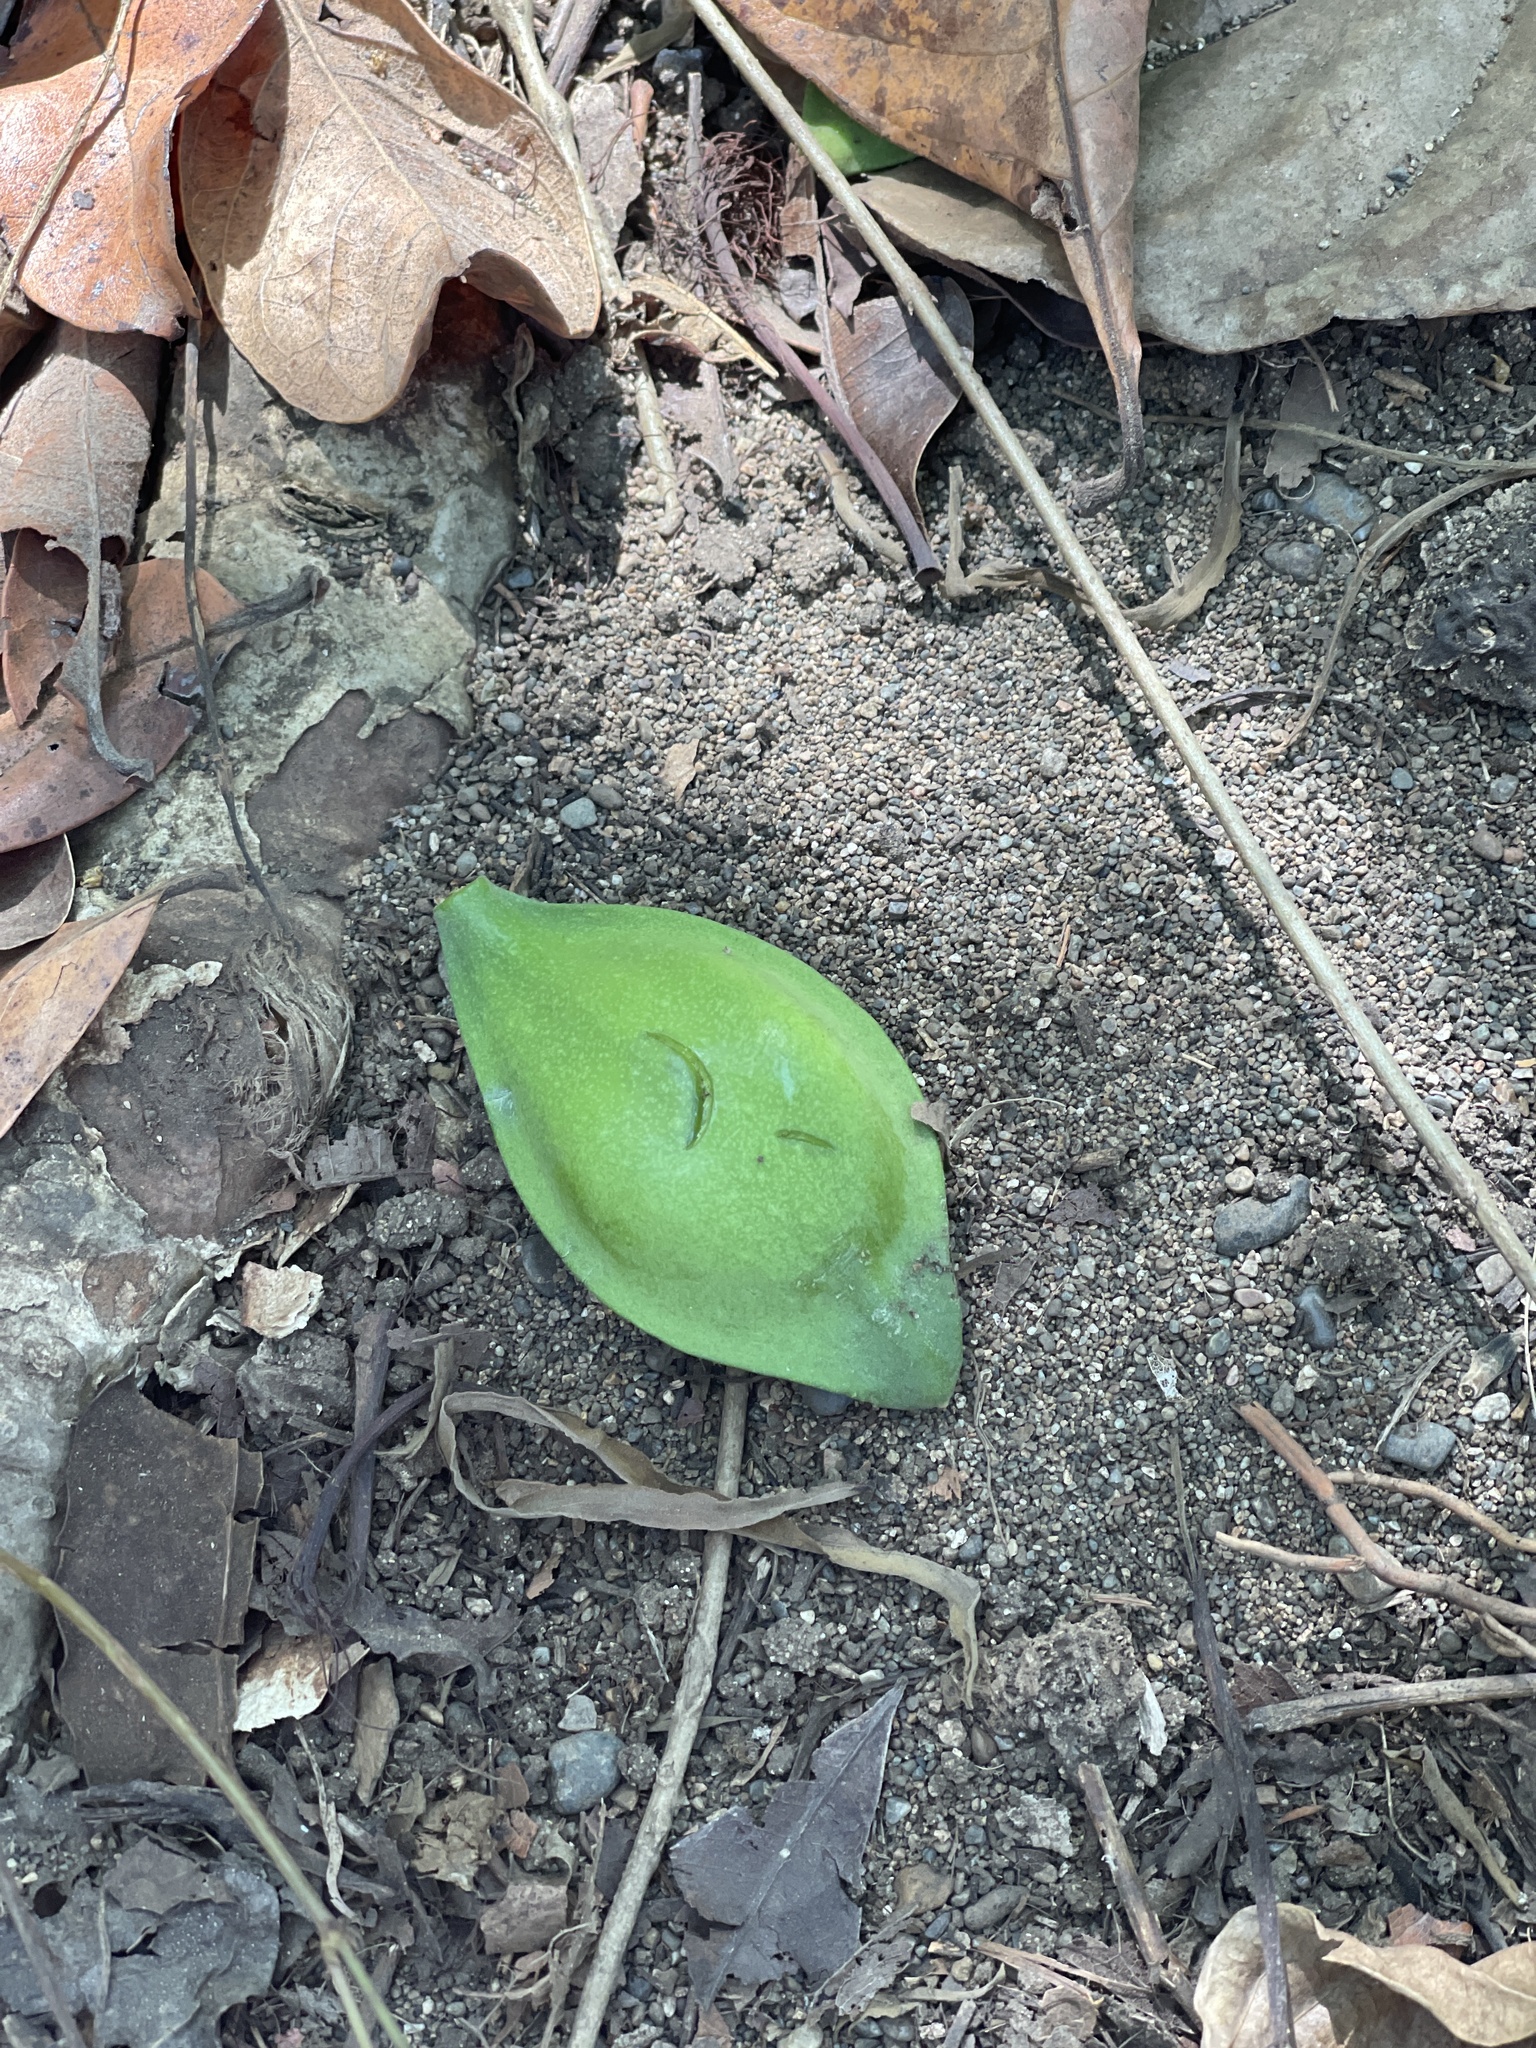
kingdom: Plantae
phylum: Tracheophyta
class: Magnoliopsida
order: Myrtales
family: Combretaceae
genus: Terminalia
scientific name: Terminalia catappa
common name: Tropical almond
